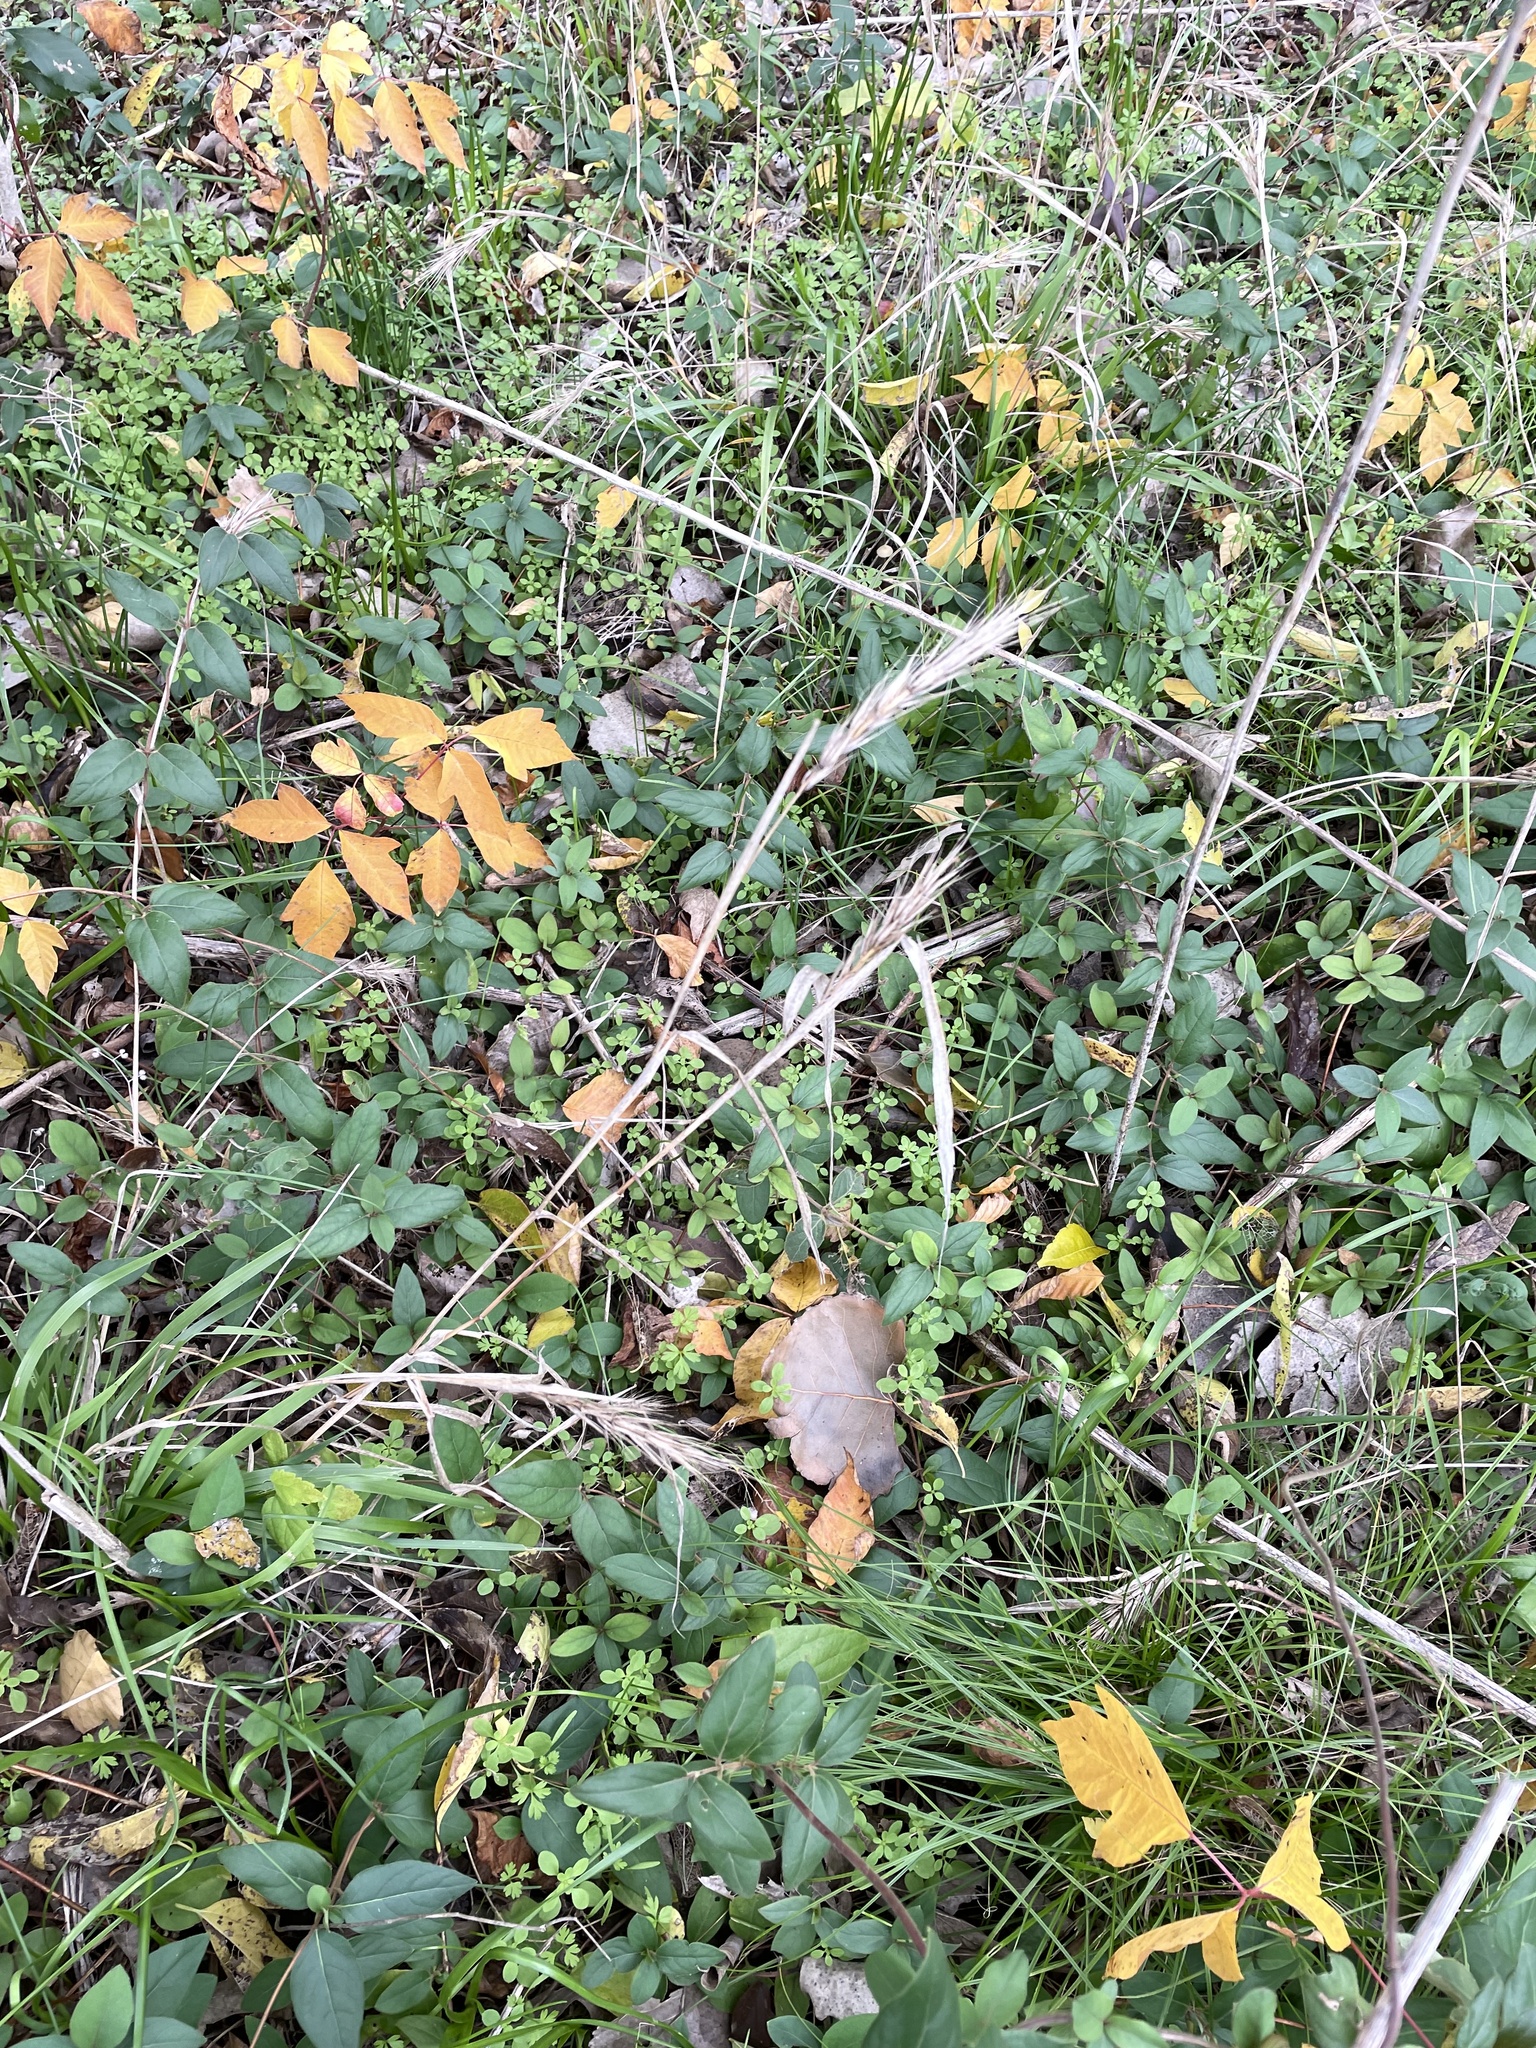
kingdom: Plantae
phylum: Tracheophyta
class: Liliopsida
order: Poales
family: Poaceae
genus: Elymus
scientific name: Elymus virginicus
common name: Common eastern wildrye
